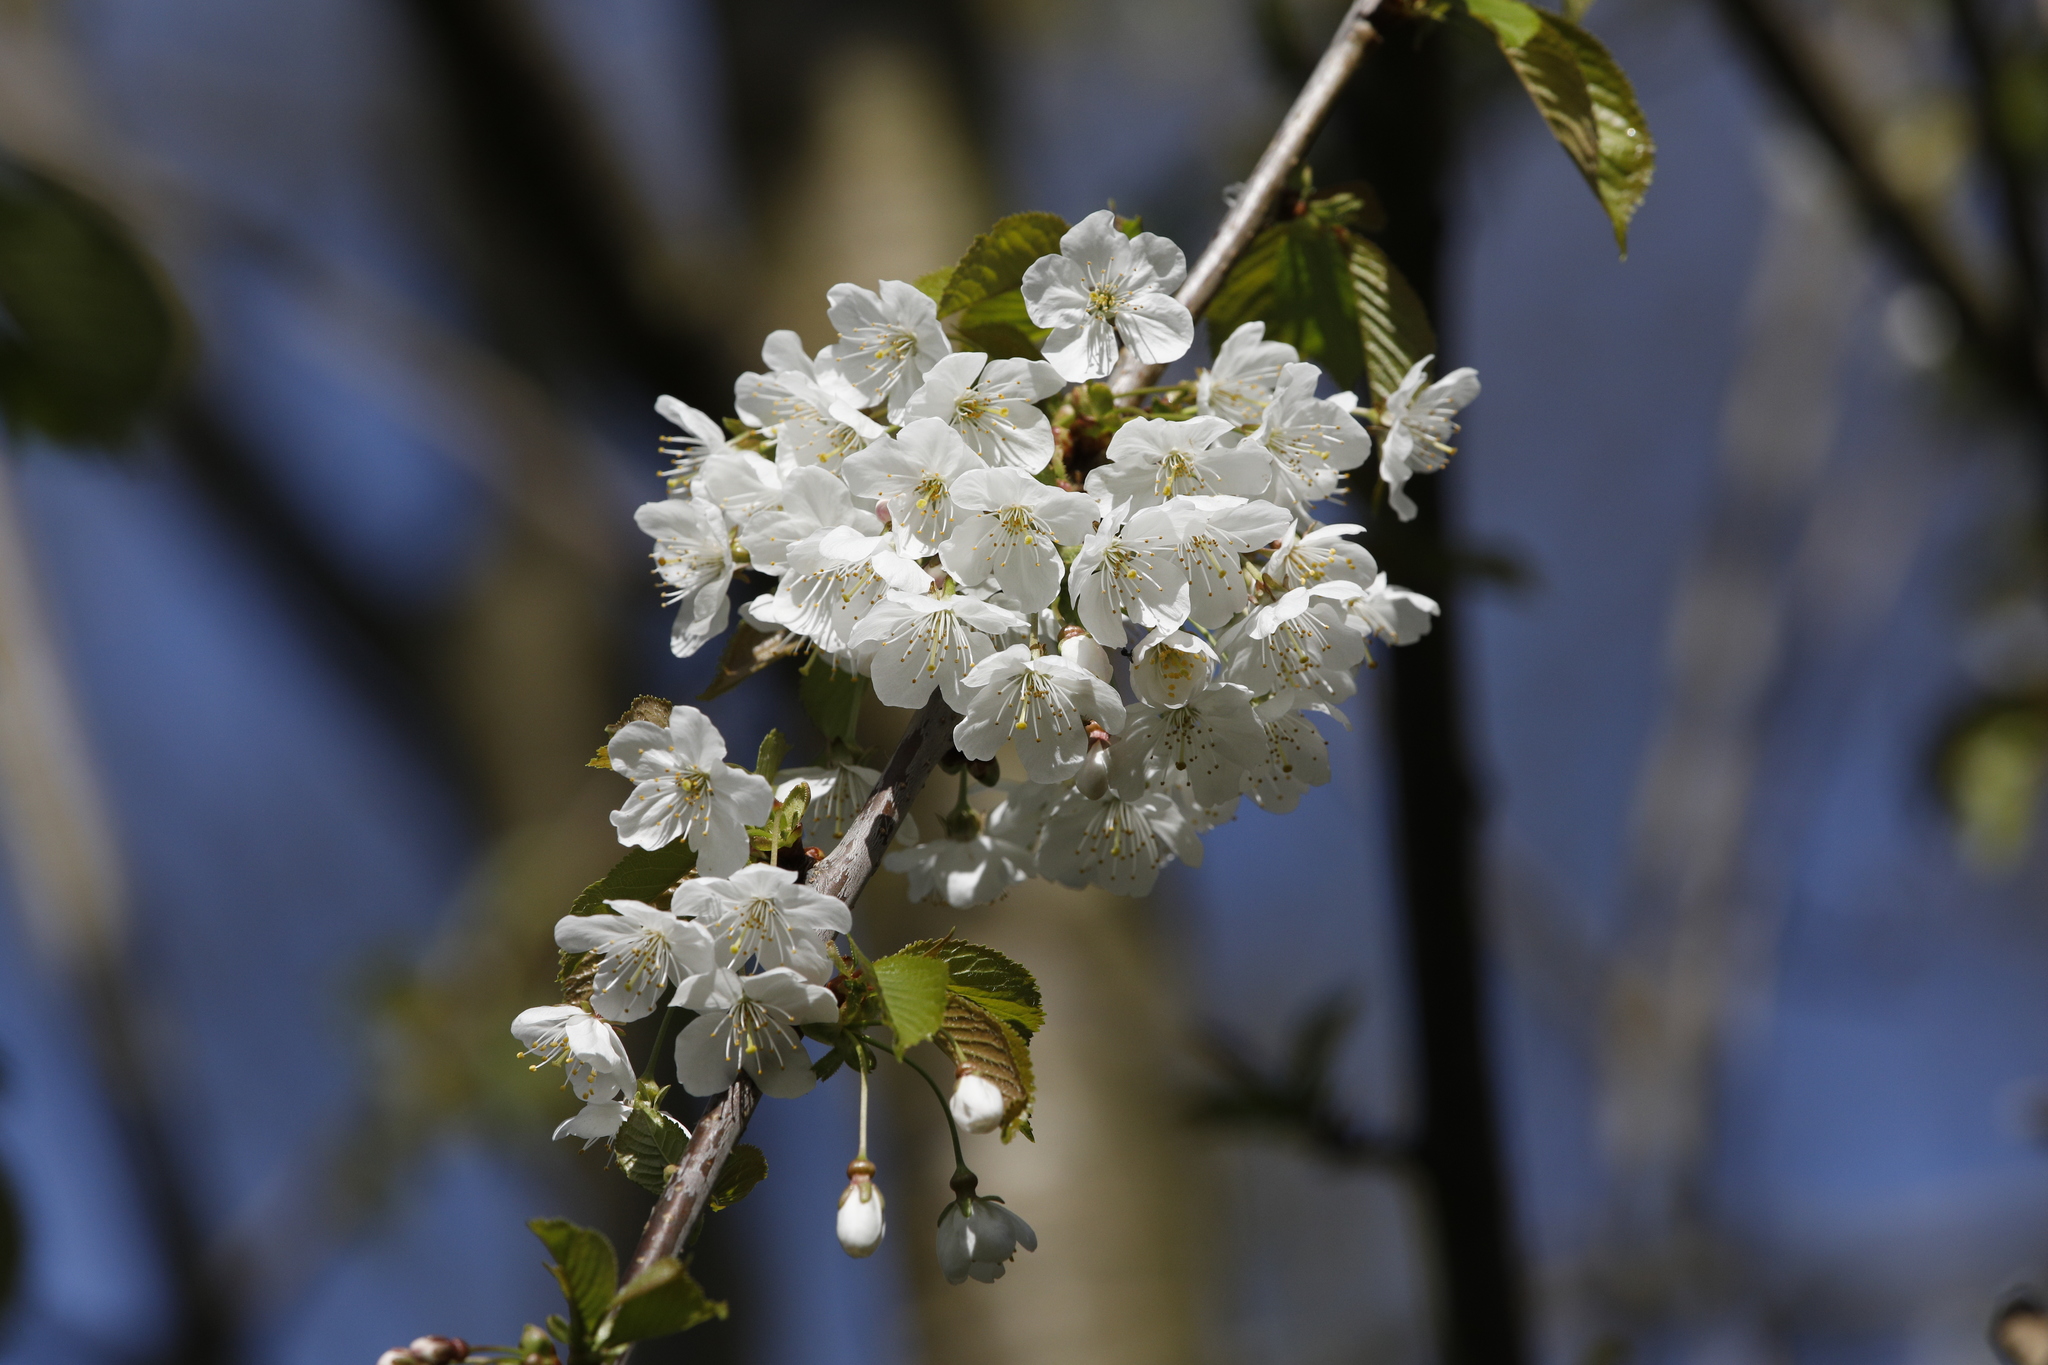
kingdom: Plantae
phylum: Tracheophyta
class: Magnoliopsida
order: Rosales
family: Rosaceae
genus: Prunus
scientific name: Prunus avium
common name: Sweet cherry
